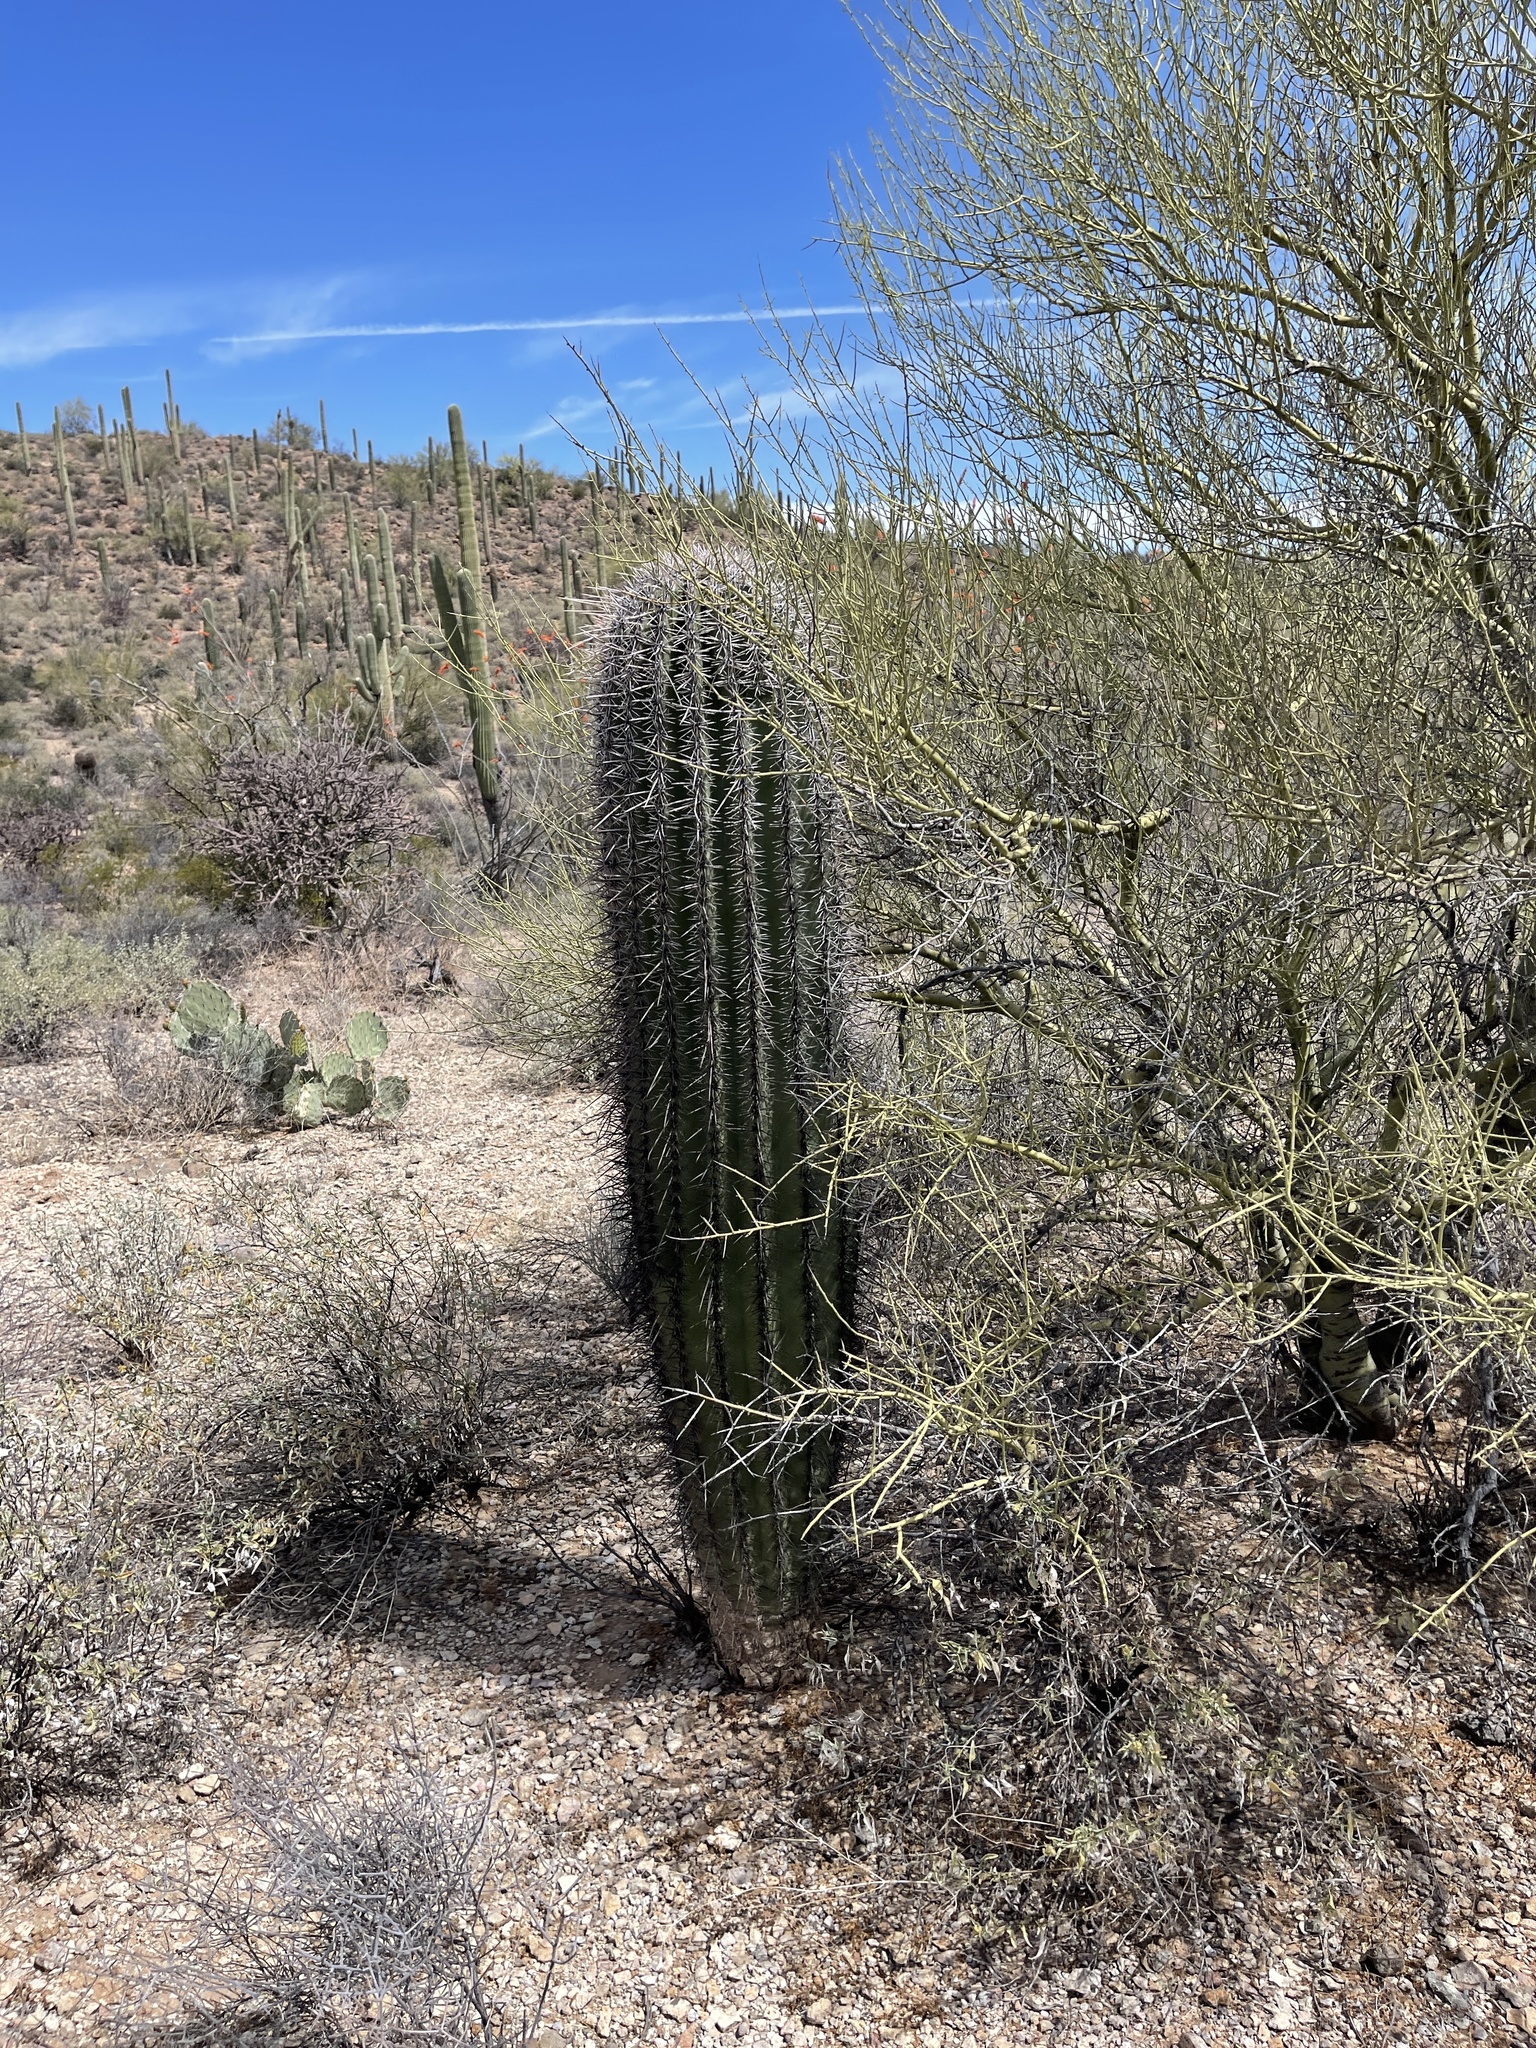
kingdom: Plantae
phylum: Tracheophyta
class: Magnoliopsida
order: Caryophyllales
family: Cactaceae
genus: Carnegiea
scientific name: Carnegiea gigantea
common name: Saguaro
